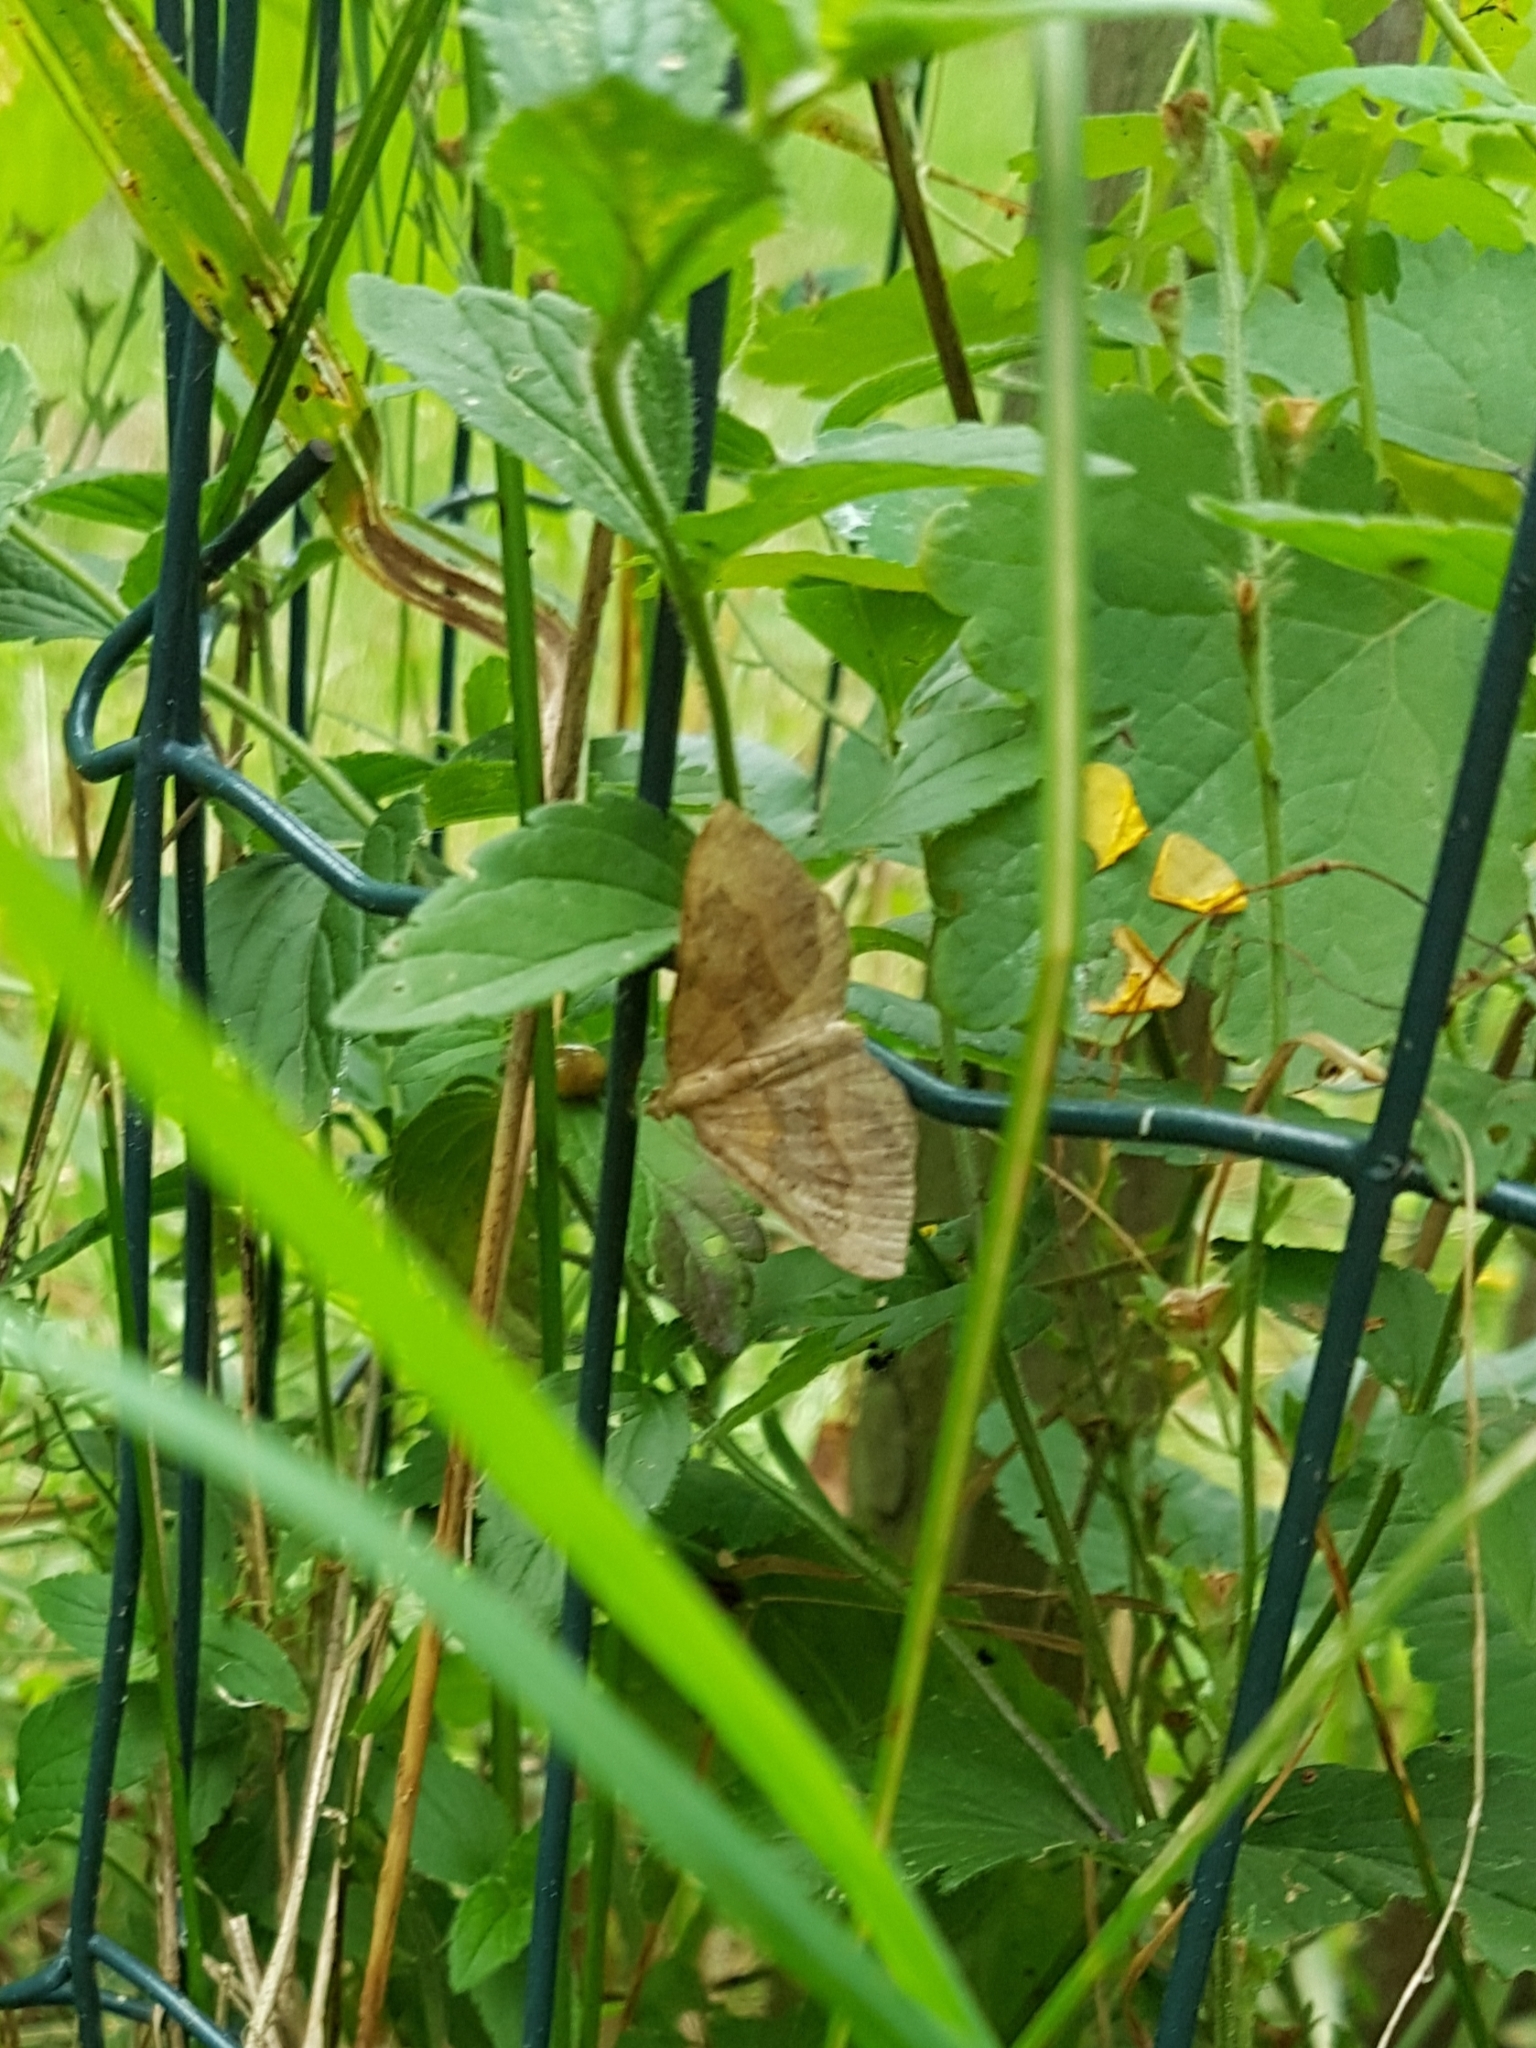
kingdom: Animalia
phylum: Arthropoda
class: Insecta
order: Lepidoptera
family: Geometridae
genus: Scotopteryx
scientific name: Scotopteryx chenopodiata
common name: Shaded broad-bar
